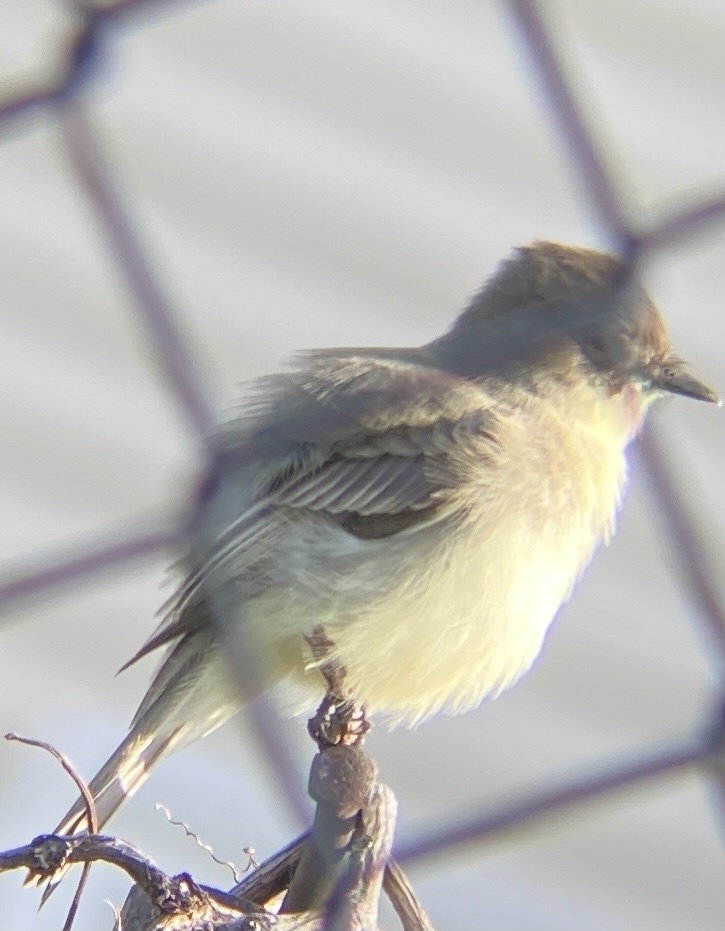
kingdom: Animalia
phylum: Chordata
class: Aves
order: Passeriformes
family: Tyrannidae
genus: Sayornis
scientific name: Sayornis phoebe
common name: Eastern phoebe
